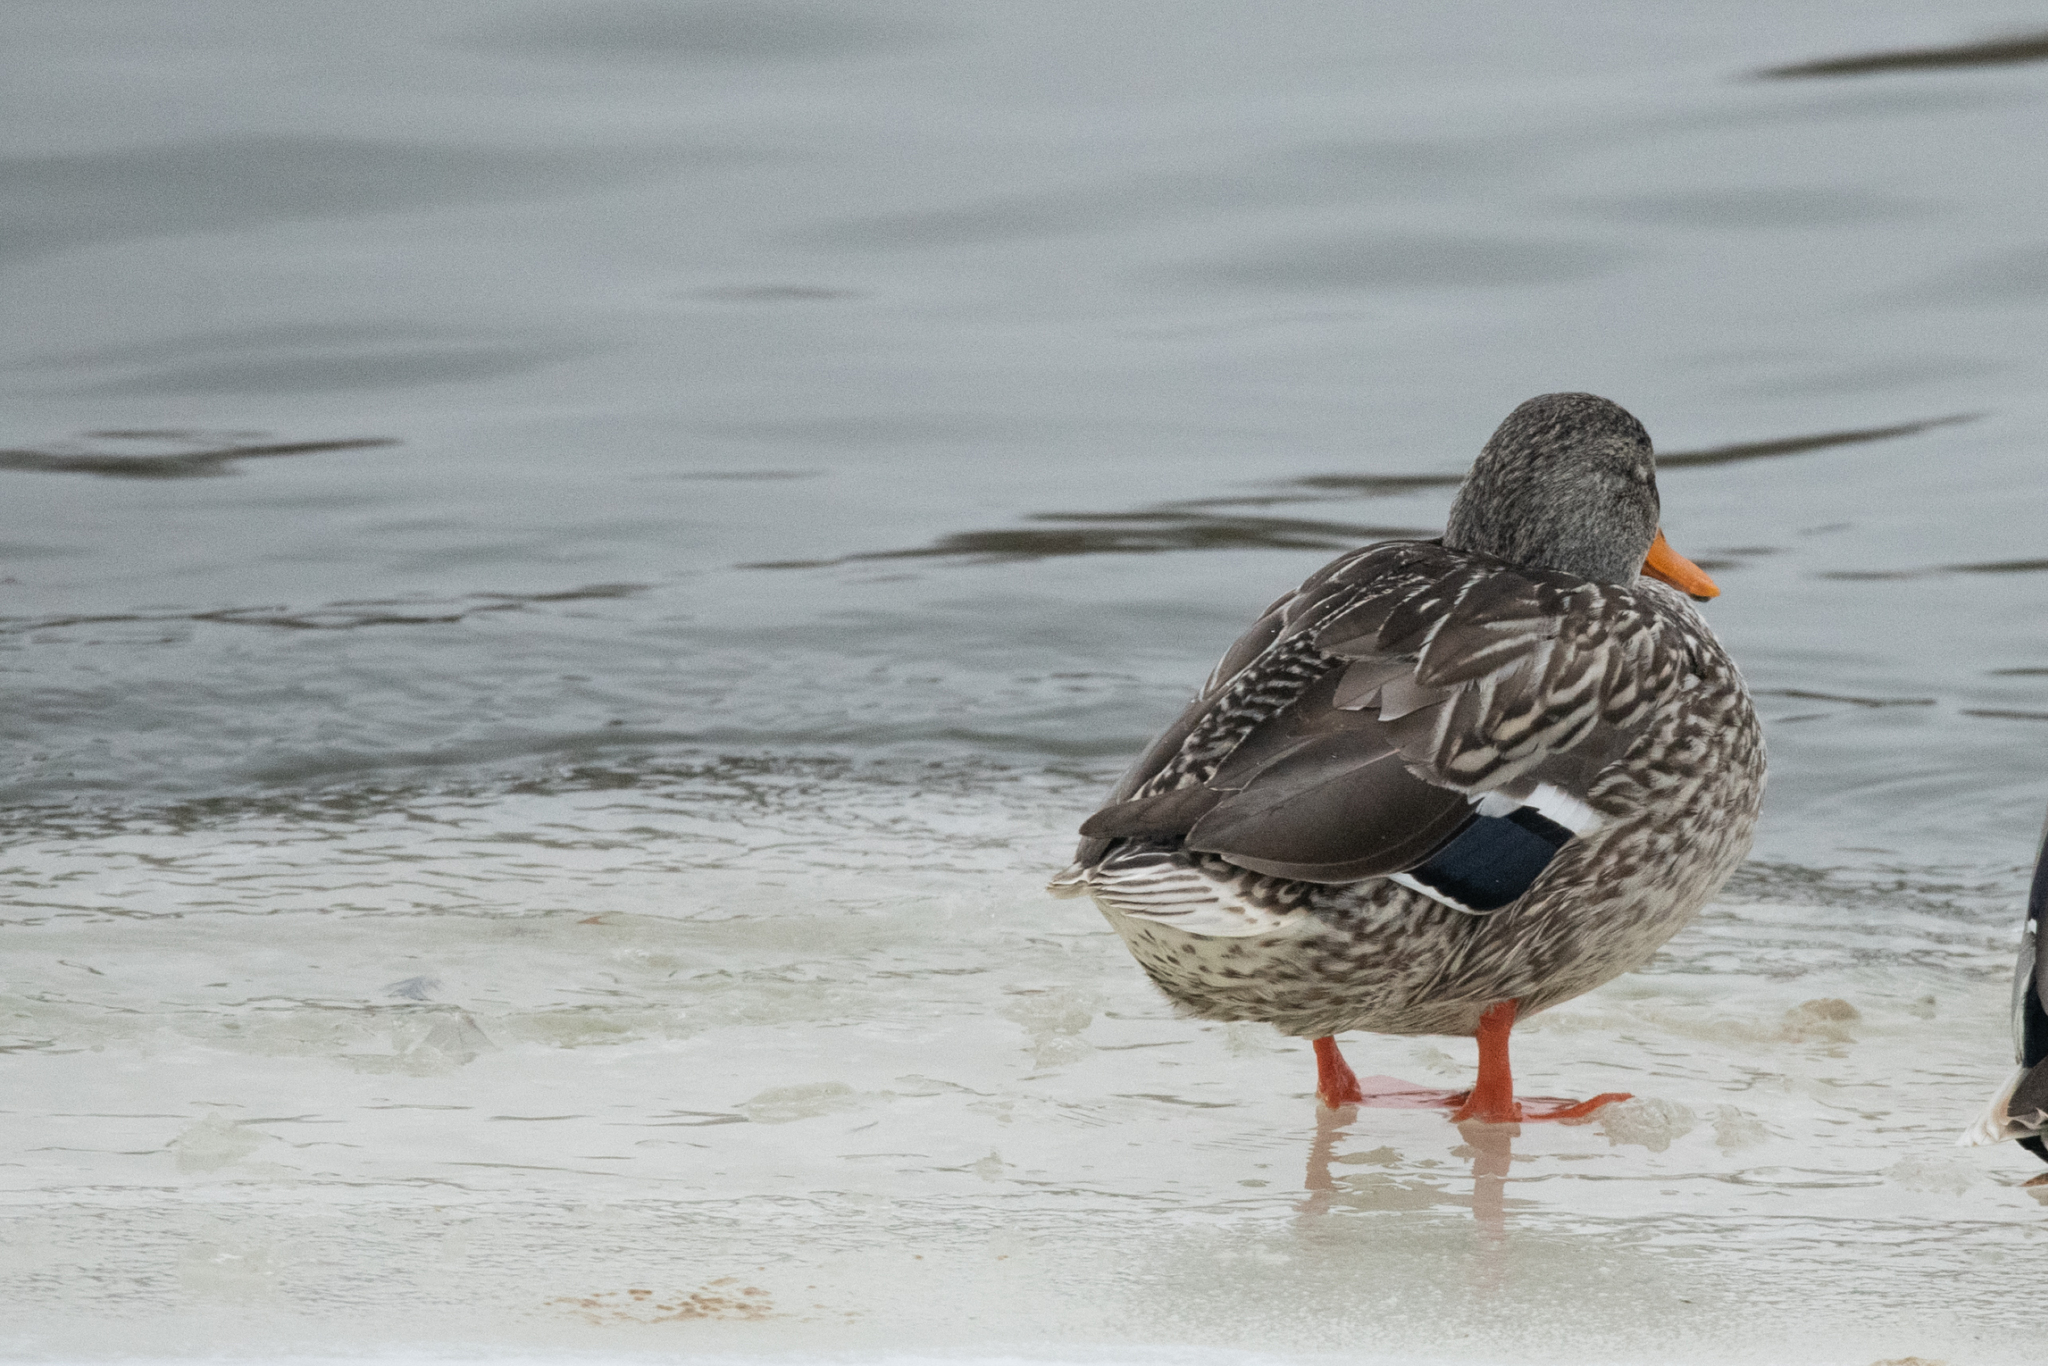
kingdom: Animalia
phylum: Chordata
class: Aves
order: Anseriformes
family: Anatidae
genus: Anas
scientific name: Anas platyrhynchos
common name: Mallard
